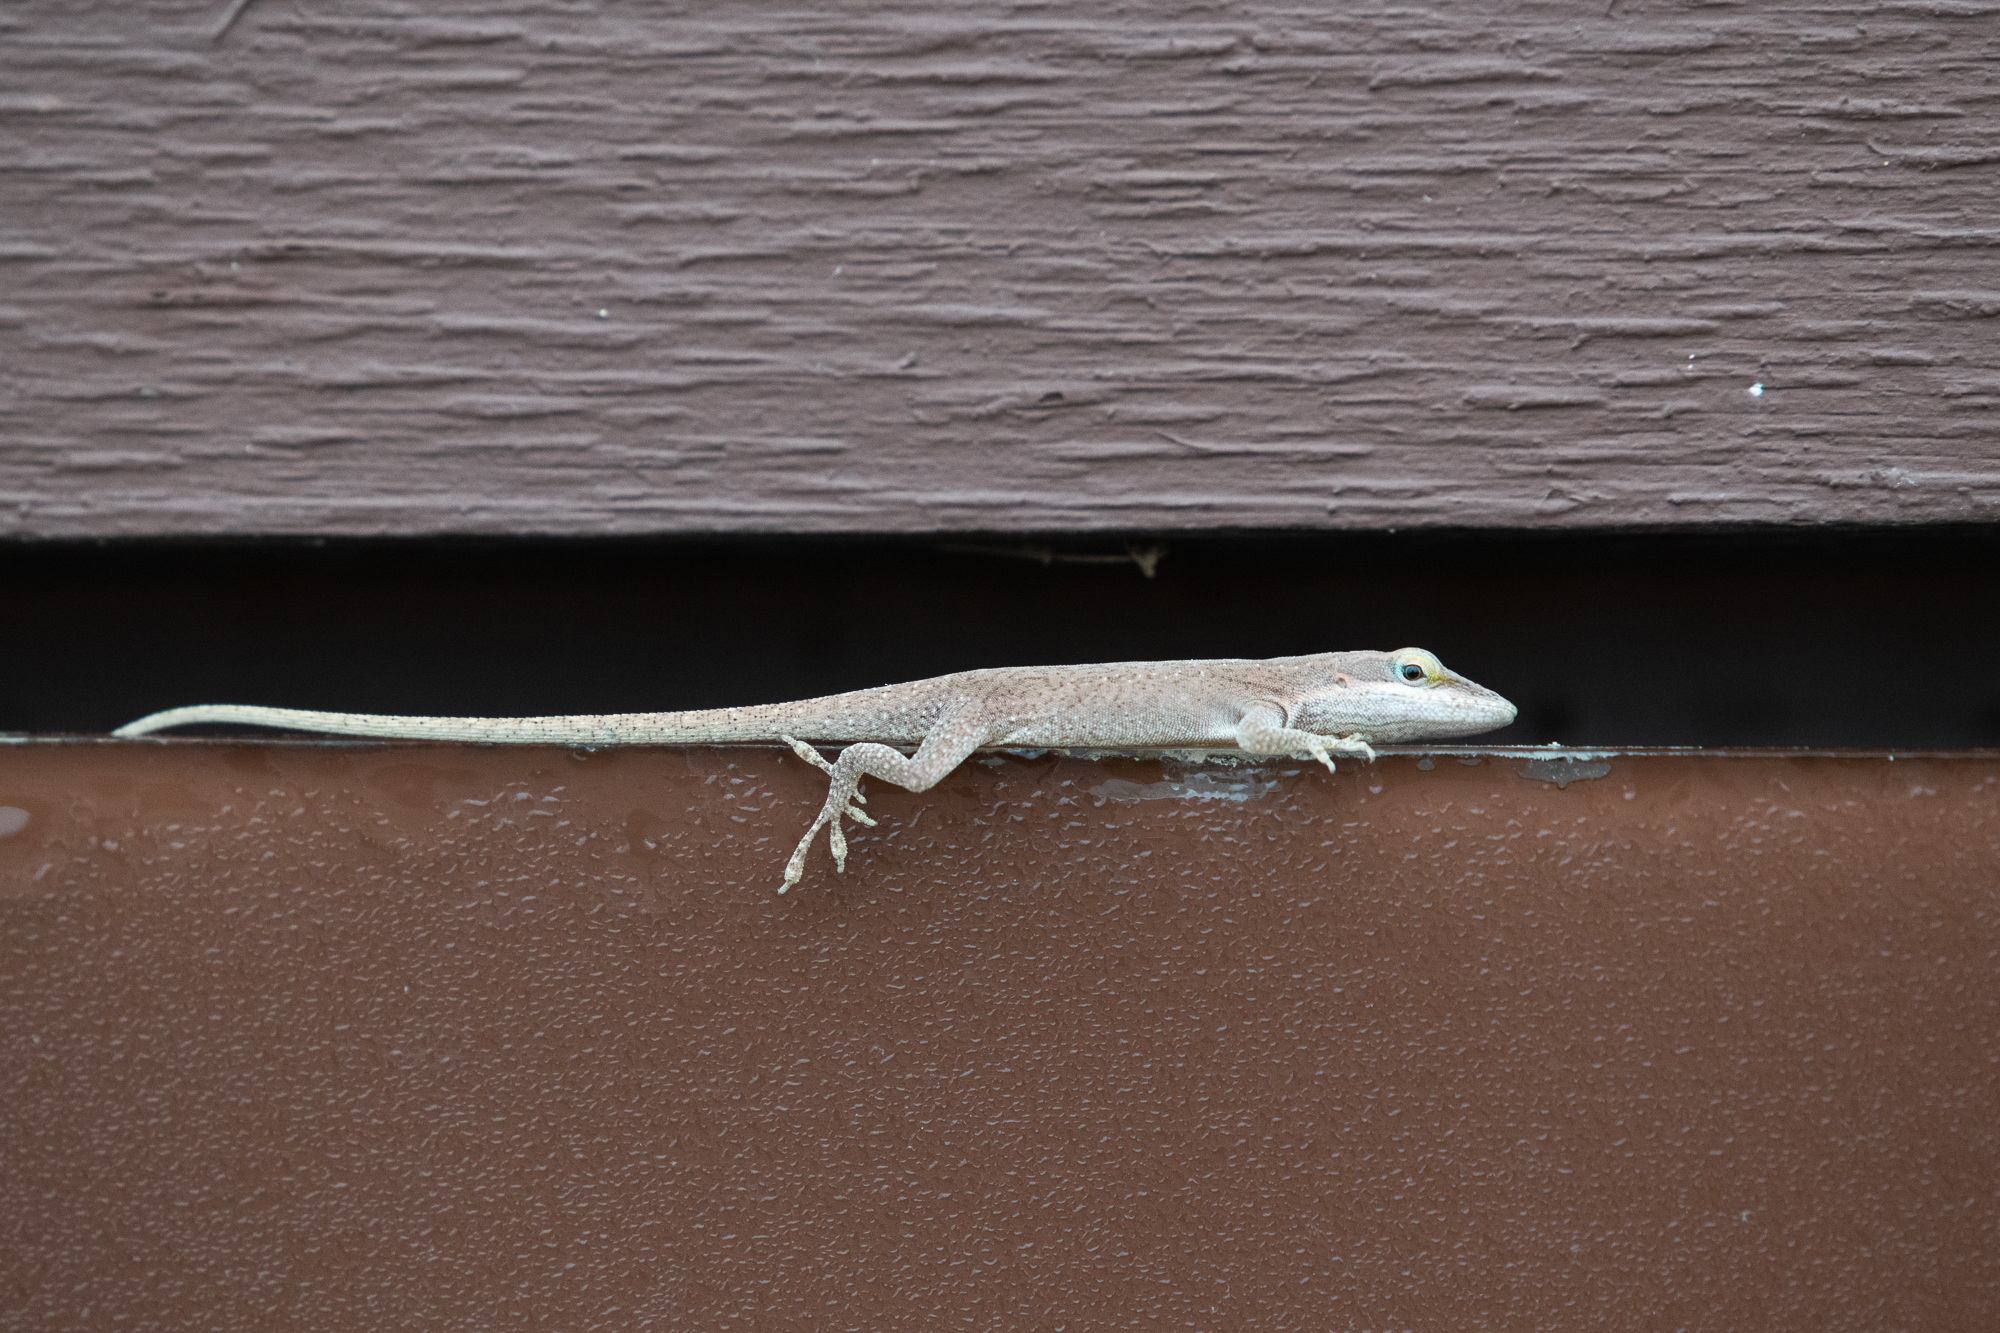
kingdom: Animalia
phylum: Chordata
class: Squamata
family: Dactyloidae
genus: Anolis
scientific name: Anolis carolinensis
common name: Green anole
